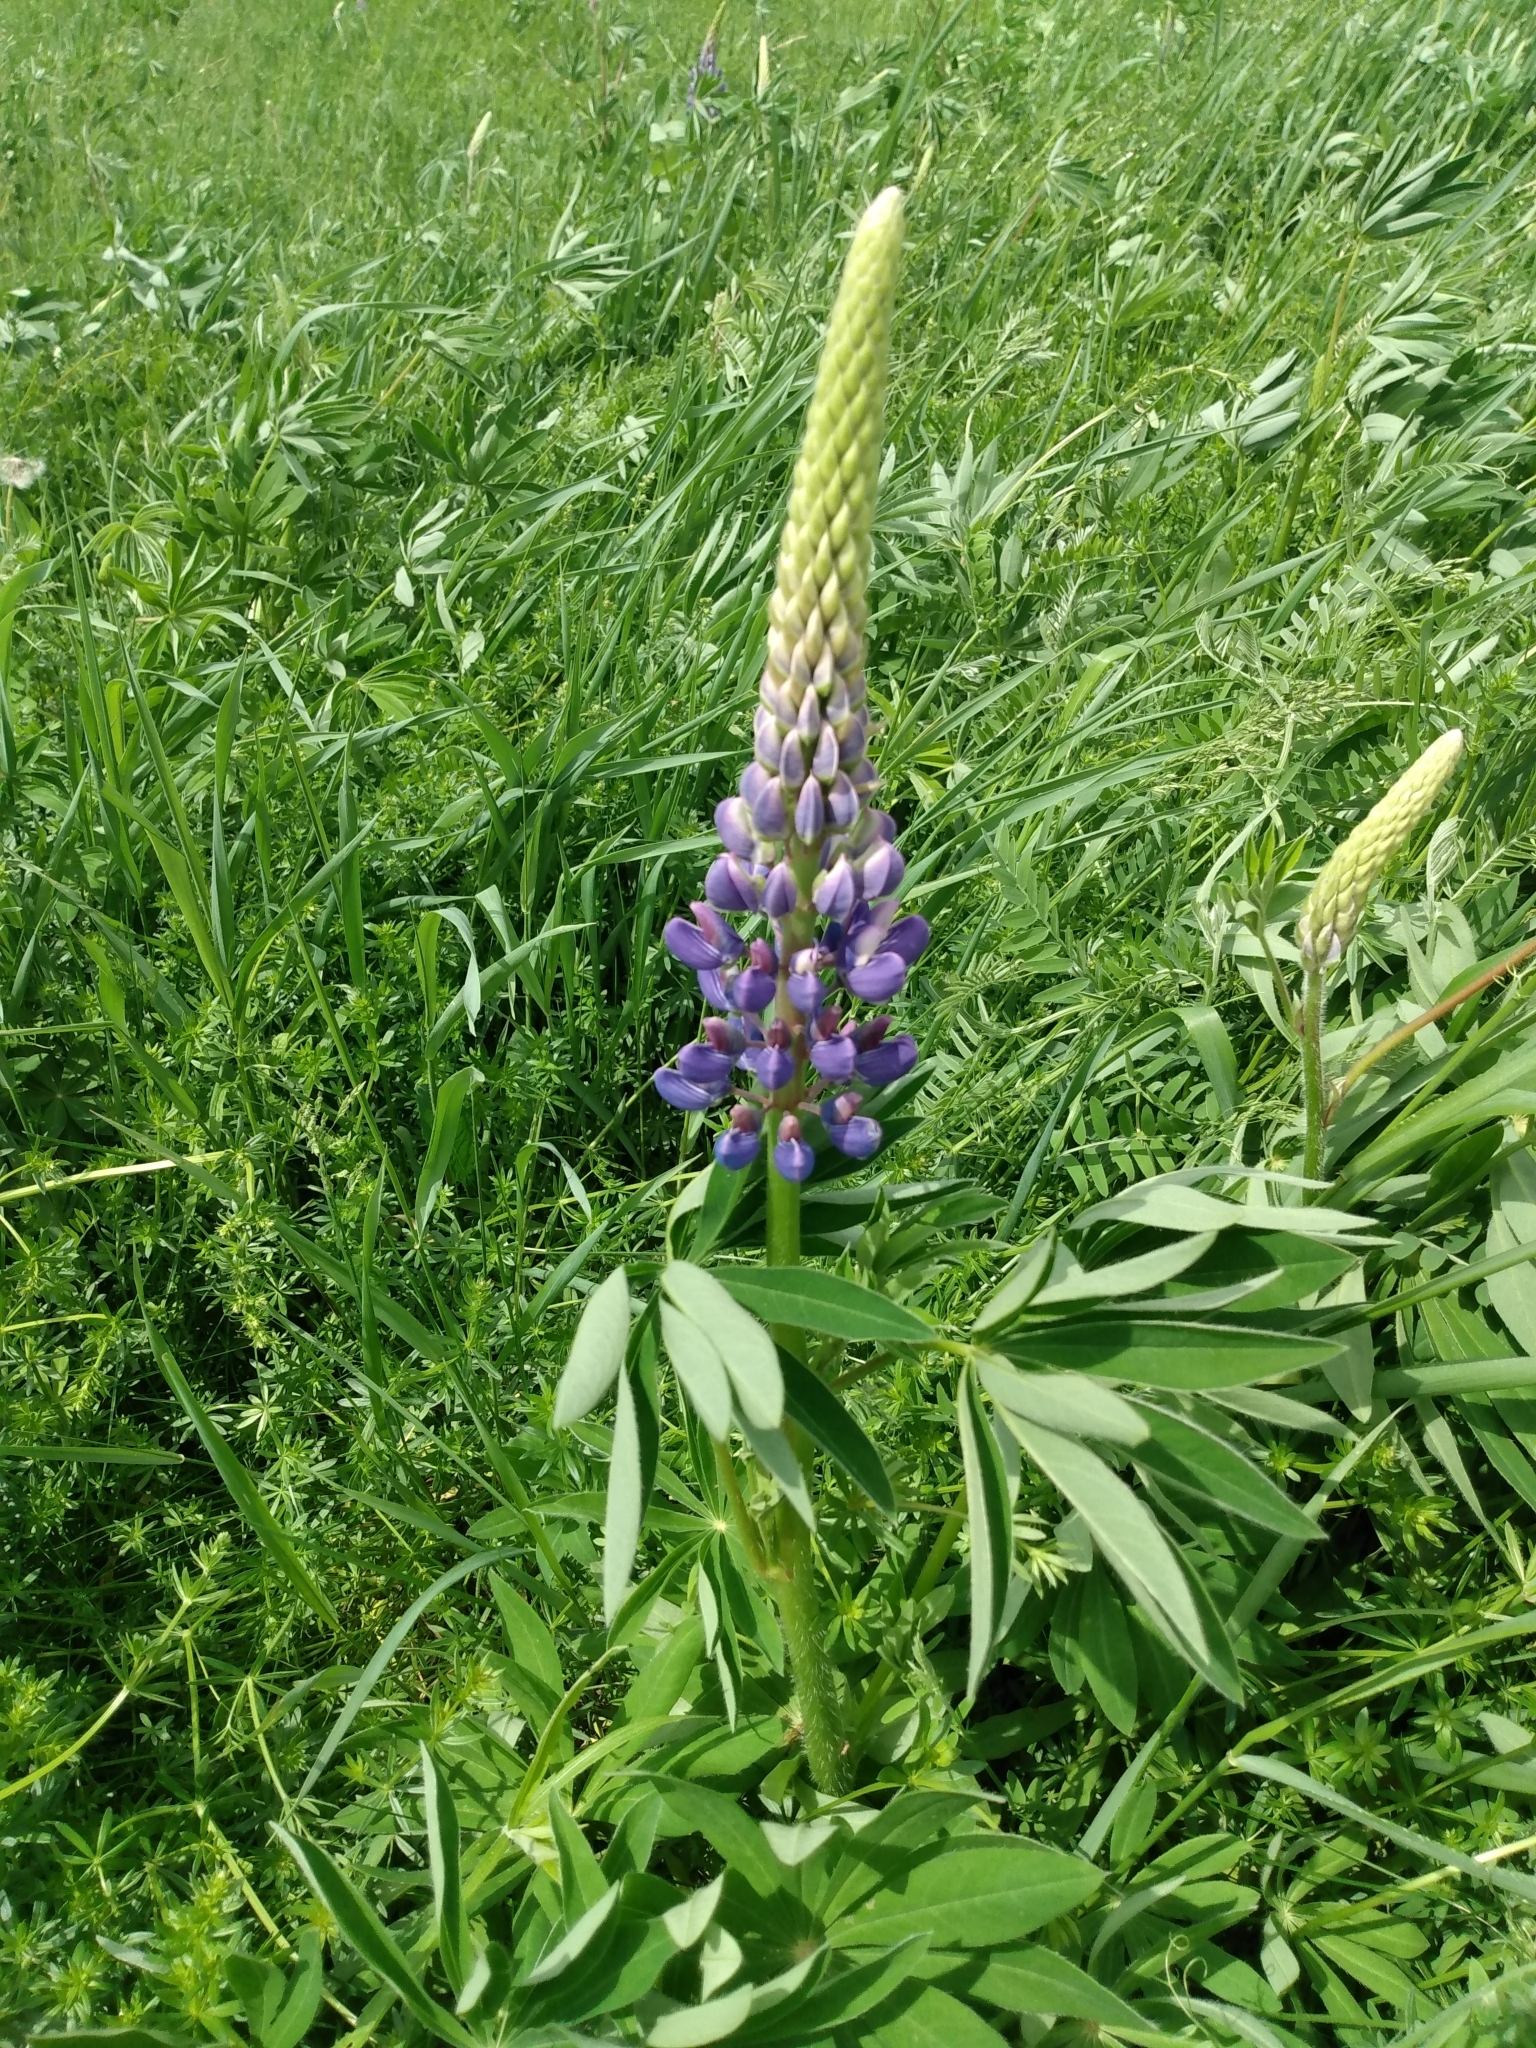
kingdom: Plantae
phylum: Tracheophyta
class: Magnoliopsida
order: Fabales
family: Fabaceae
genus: Lupinus
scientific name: Lupinus polyphyllus
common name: Garden lupin
